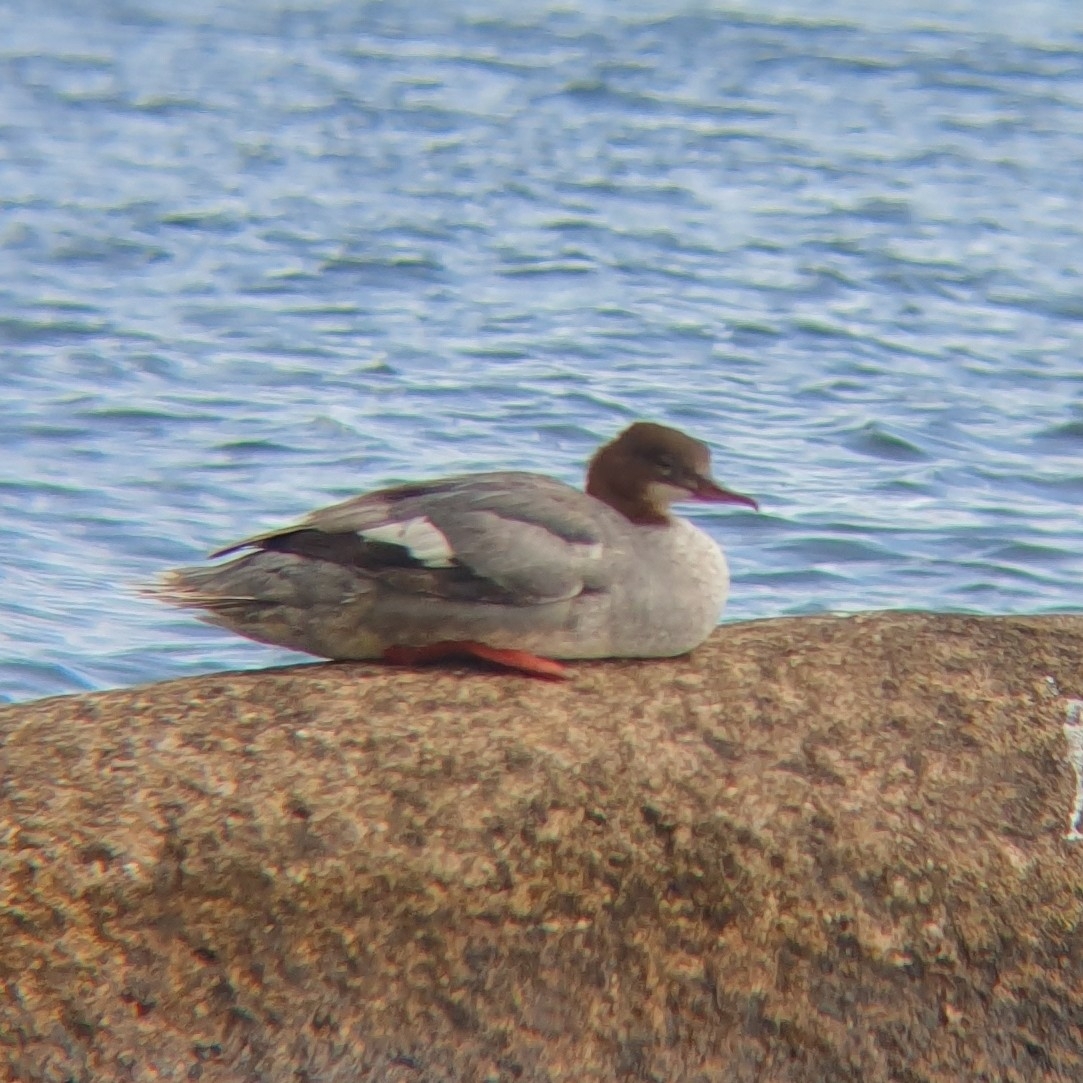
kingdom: Animalia
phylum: Chordata
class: Aves
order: Anseriformes
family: Anatidae
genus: Mergus
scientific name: Mergus merganser
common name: Common merganser
